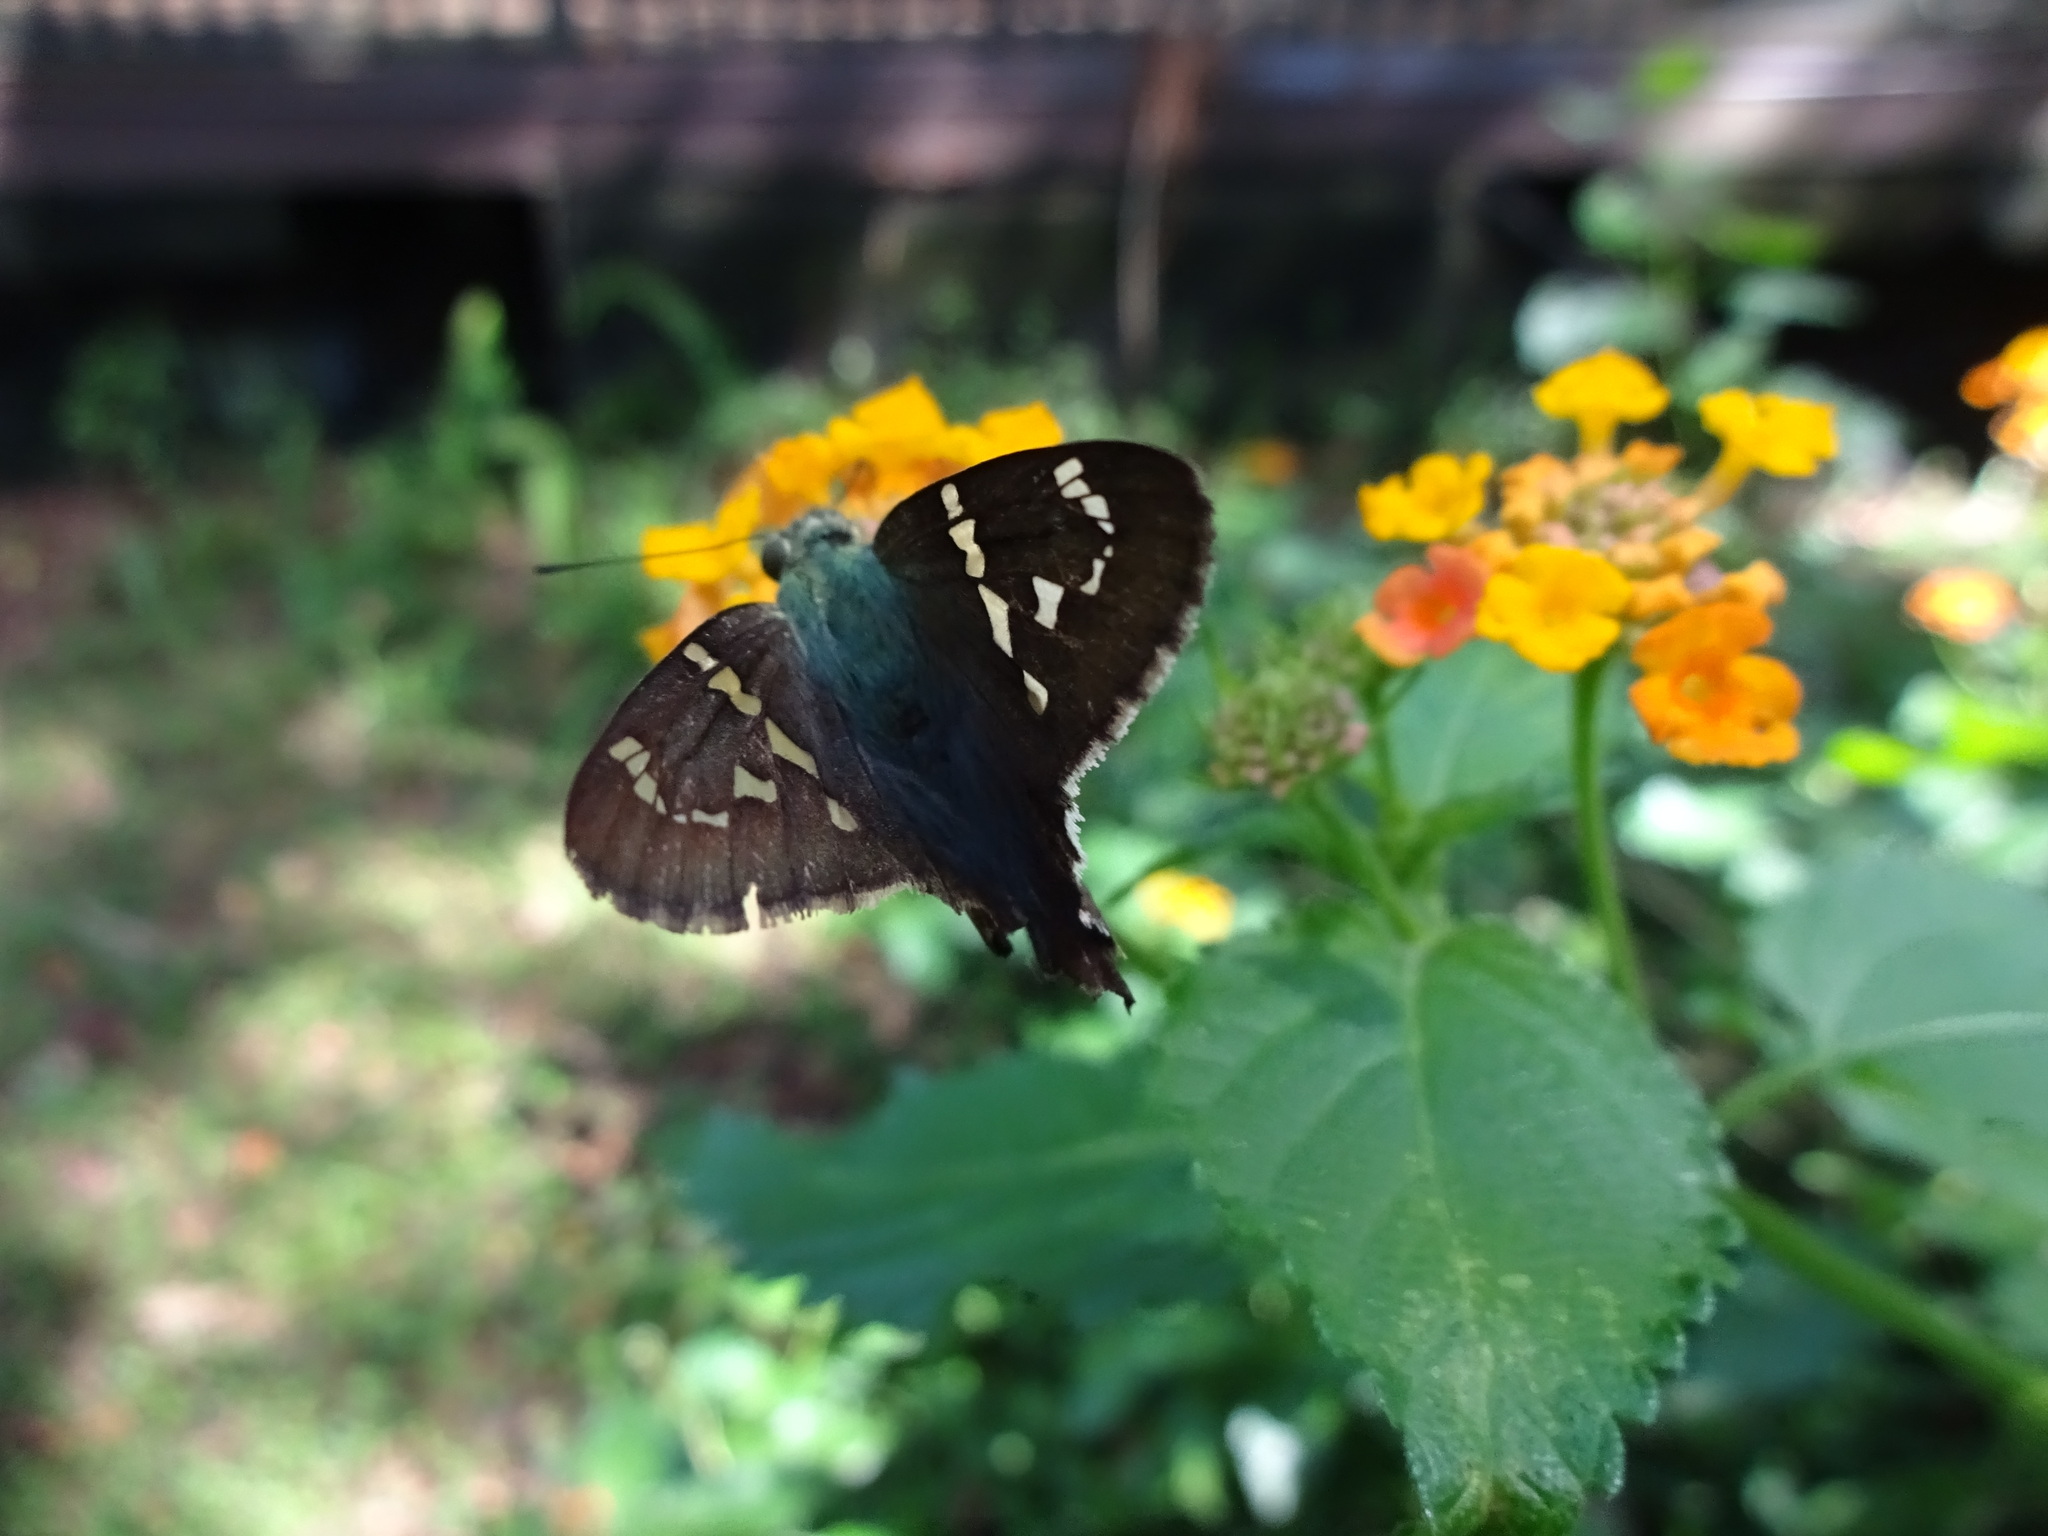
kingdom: Animalia
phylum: Arthropoda
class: Insecta
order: Lepidoptera
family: Hesperiidae
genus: Urbanus
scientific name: Urbanus proteus
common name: Long-tailed skipper
